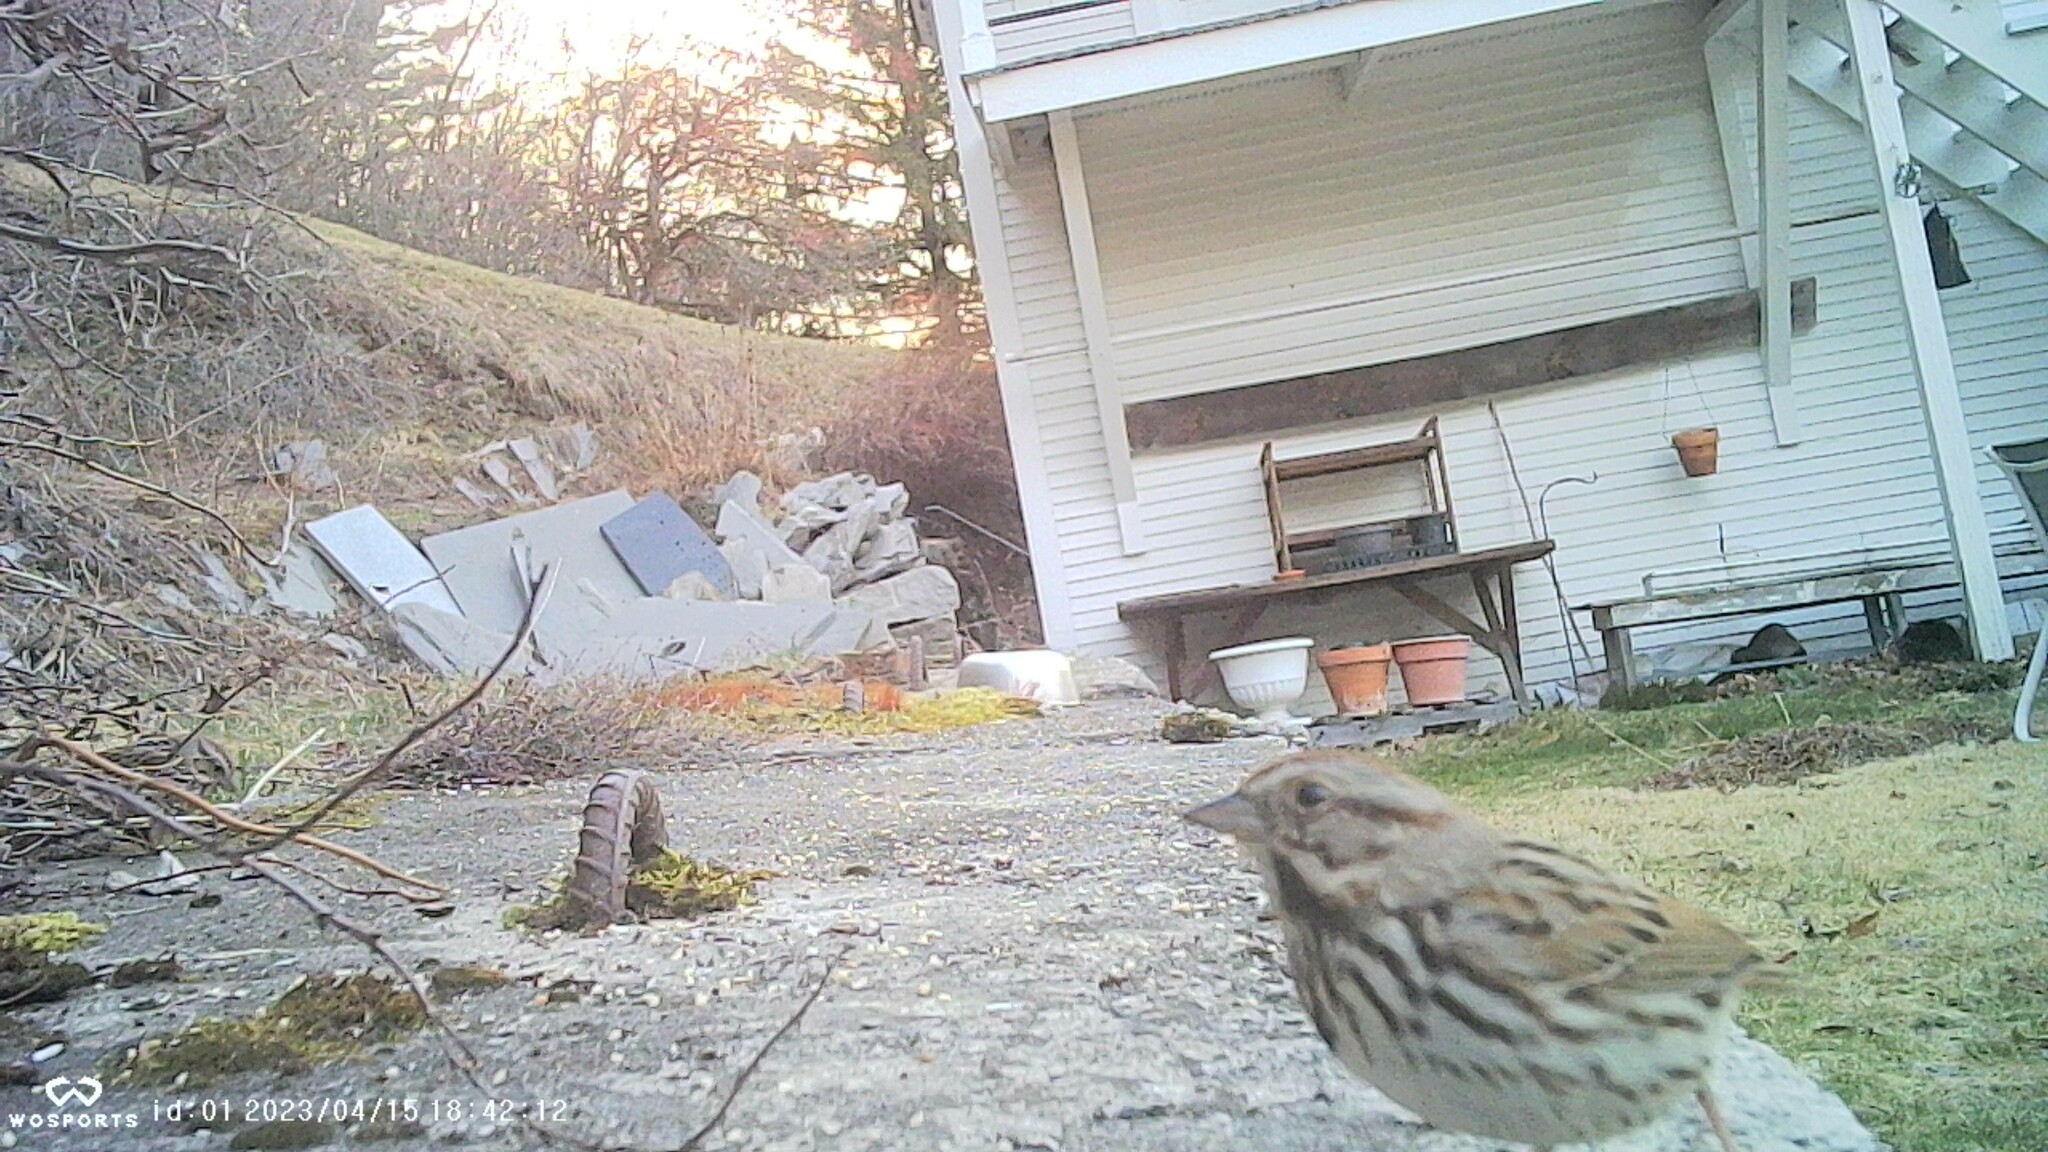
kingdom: Animalia
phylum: Chordata
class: Aves
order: Passeriformes
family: Passerellidae
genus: Melospiza
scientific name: Melospiza melodia
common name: Song sparrow
